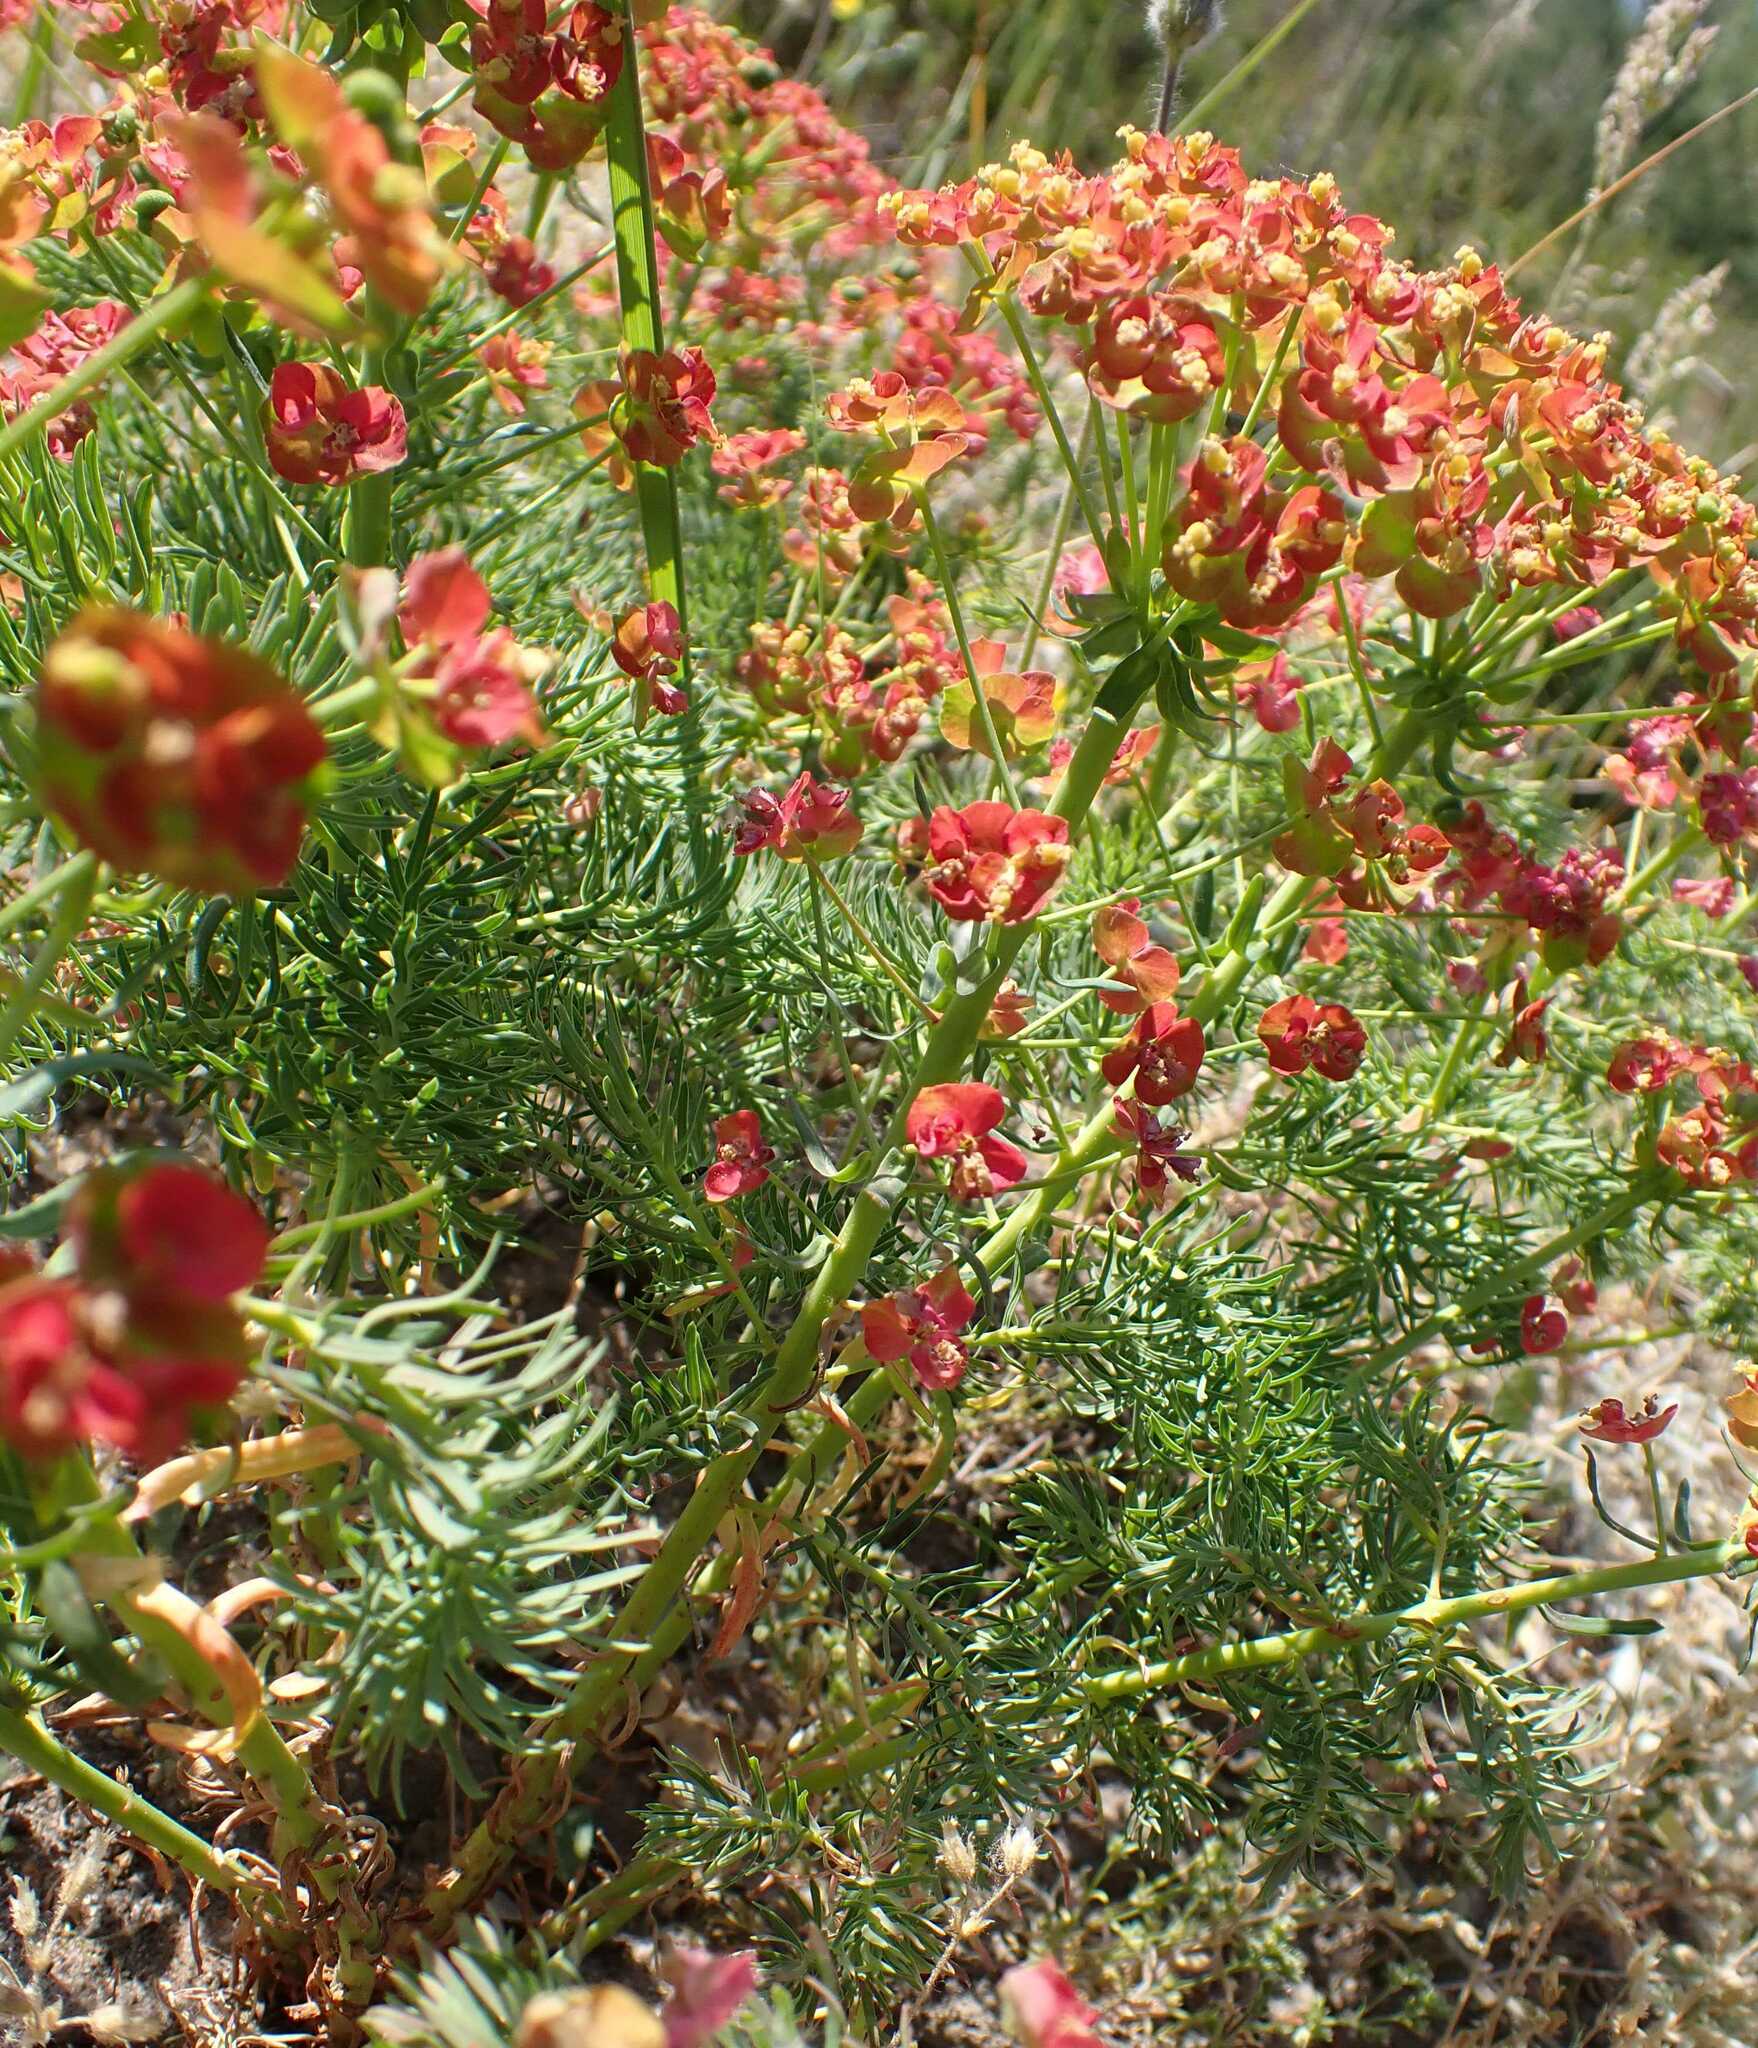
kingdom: Plantae
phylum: Tracheophyta
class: Magnoliopsida
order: Malpighiales
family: Euphorbiaceae
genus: Euphorbia
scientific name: Euphorbia cyparissias
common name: Cypress spurge
